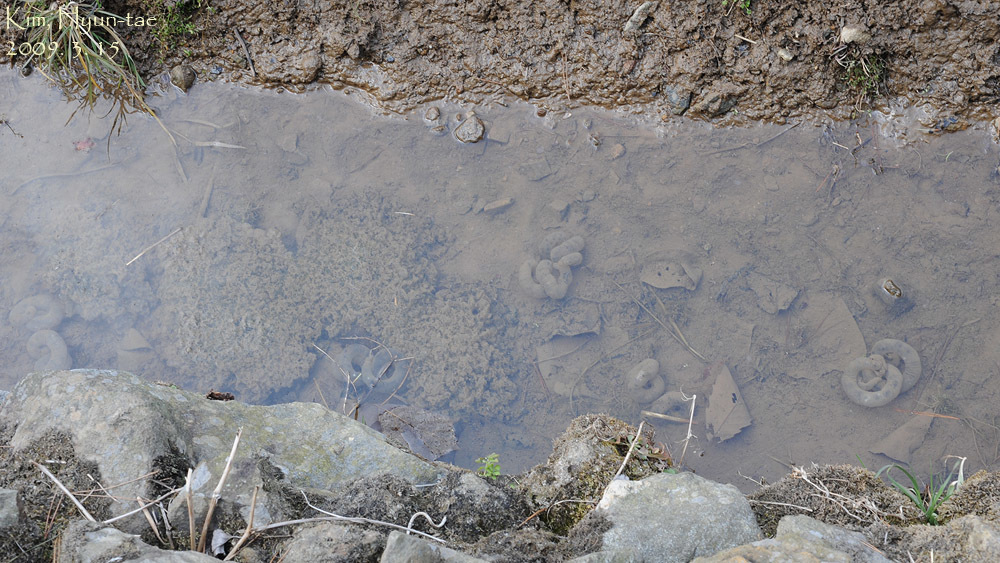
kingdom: Animalia
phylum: Chordata
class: Amphibia
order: Caudata
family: Hynobiidae
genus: Hynobius
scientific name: Hynobius leechii
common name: Gensan salamander
